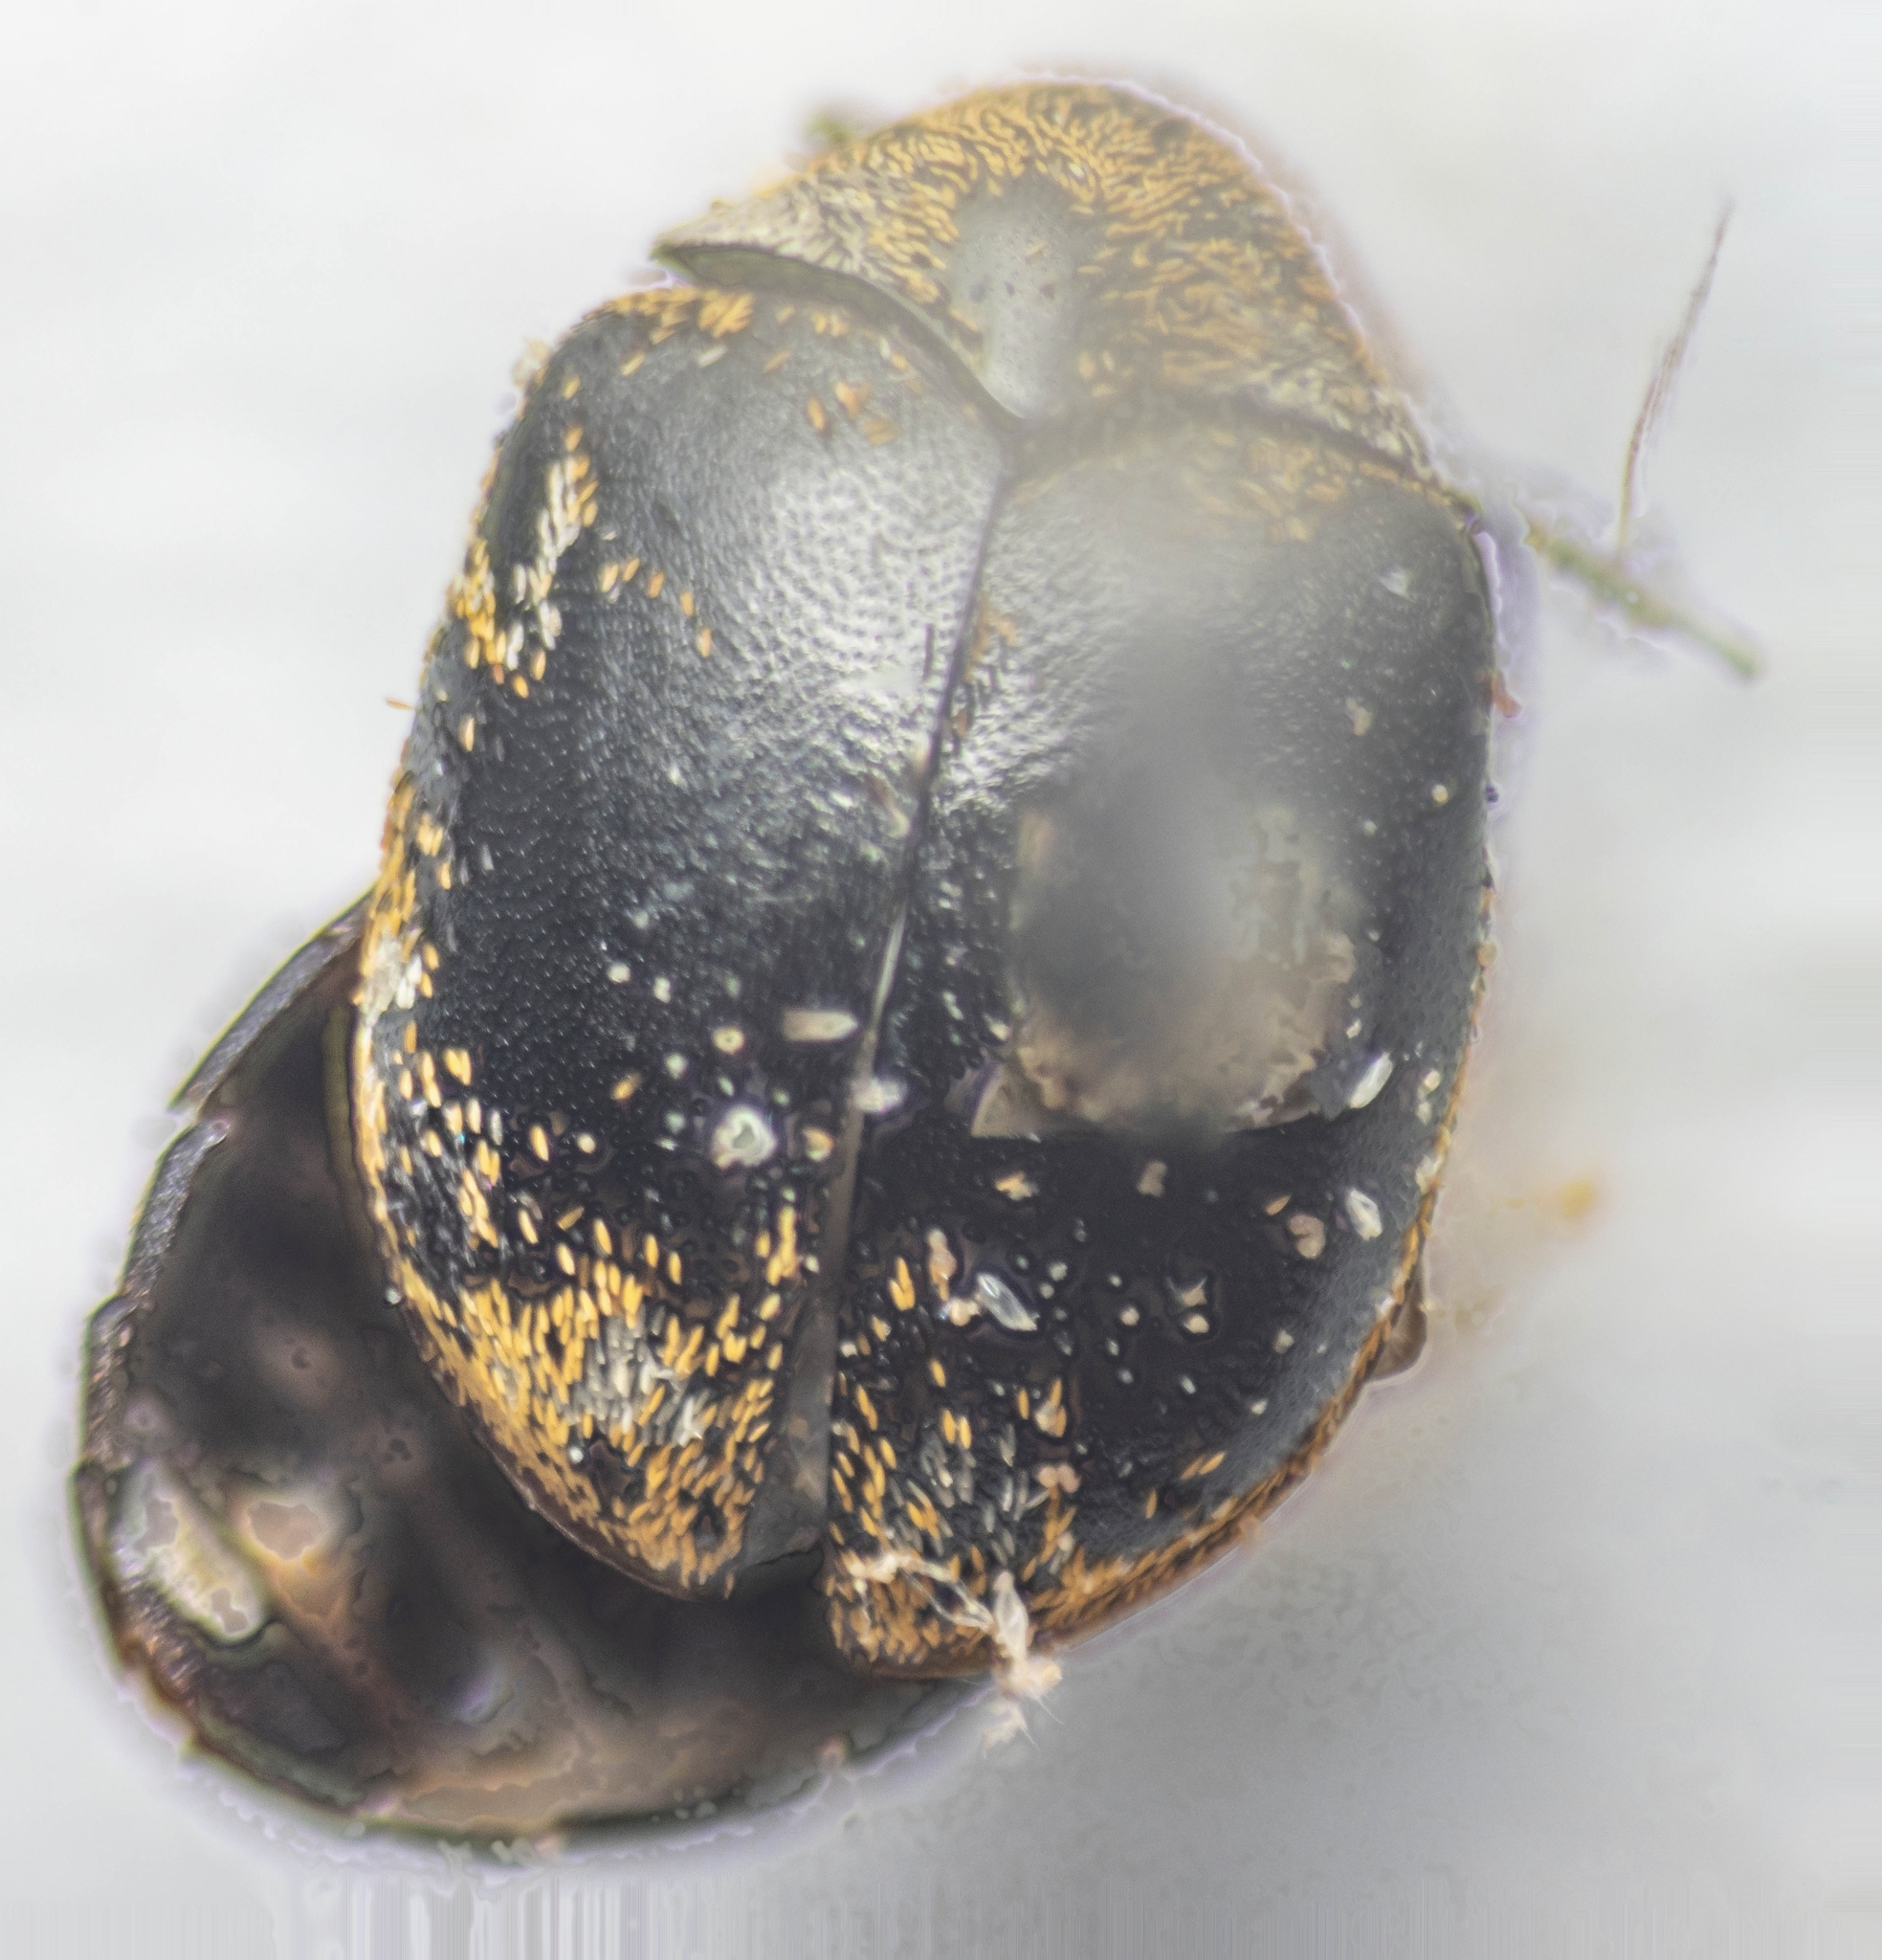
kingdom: Animalia
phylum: Arthropoda
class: Insecta
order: Coleoptera
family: Dermestidae
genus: Anthrenus
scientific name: Anthrenus verbasci
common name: Varied carpet beetle
